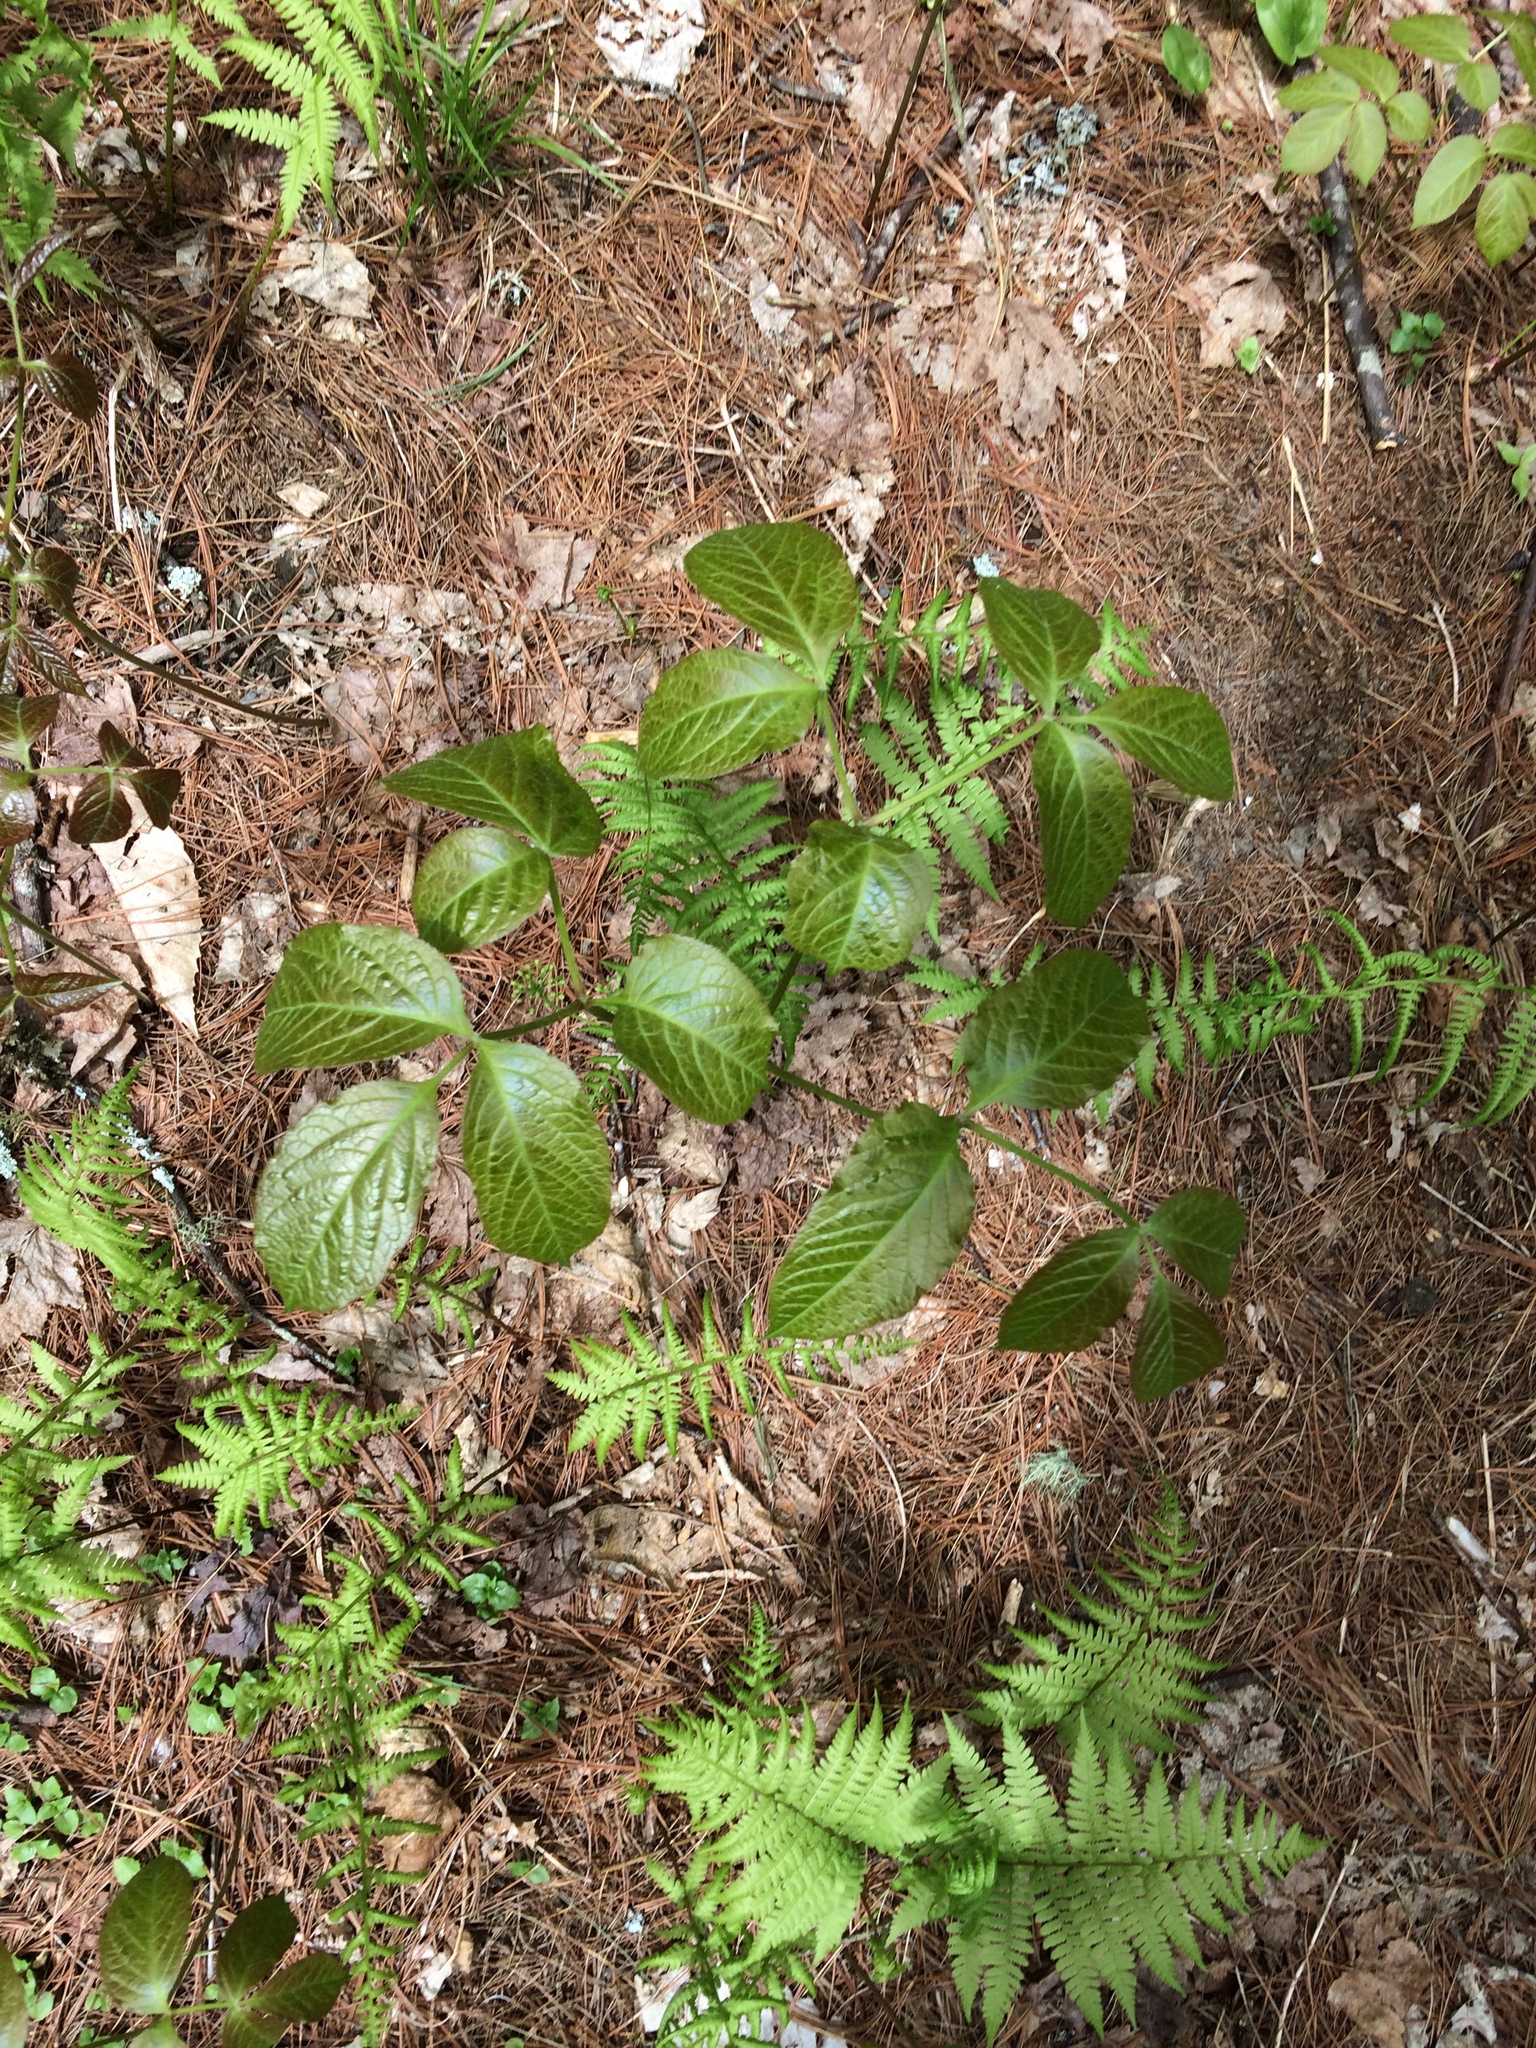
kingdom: Plantae
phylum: Tracheophyta
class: Magnoliopsida
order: Apiales
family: Araliaceae
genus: Aralia
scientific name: Aralia nudicaulis
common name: Wild sarsaparilla
